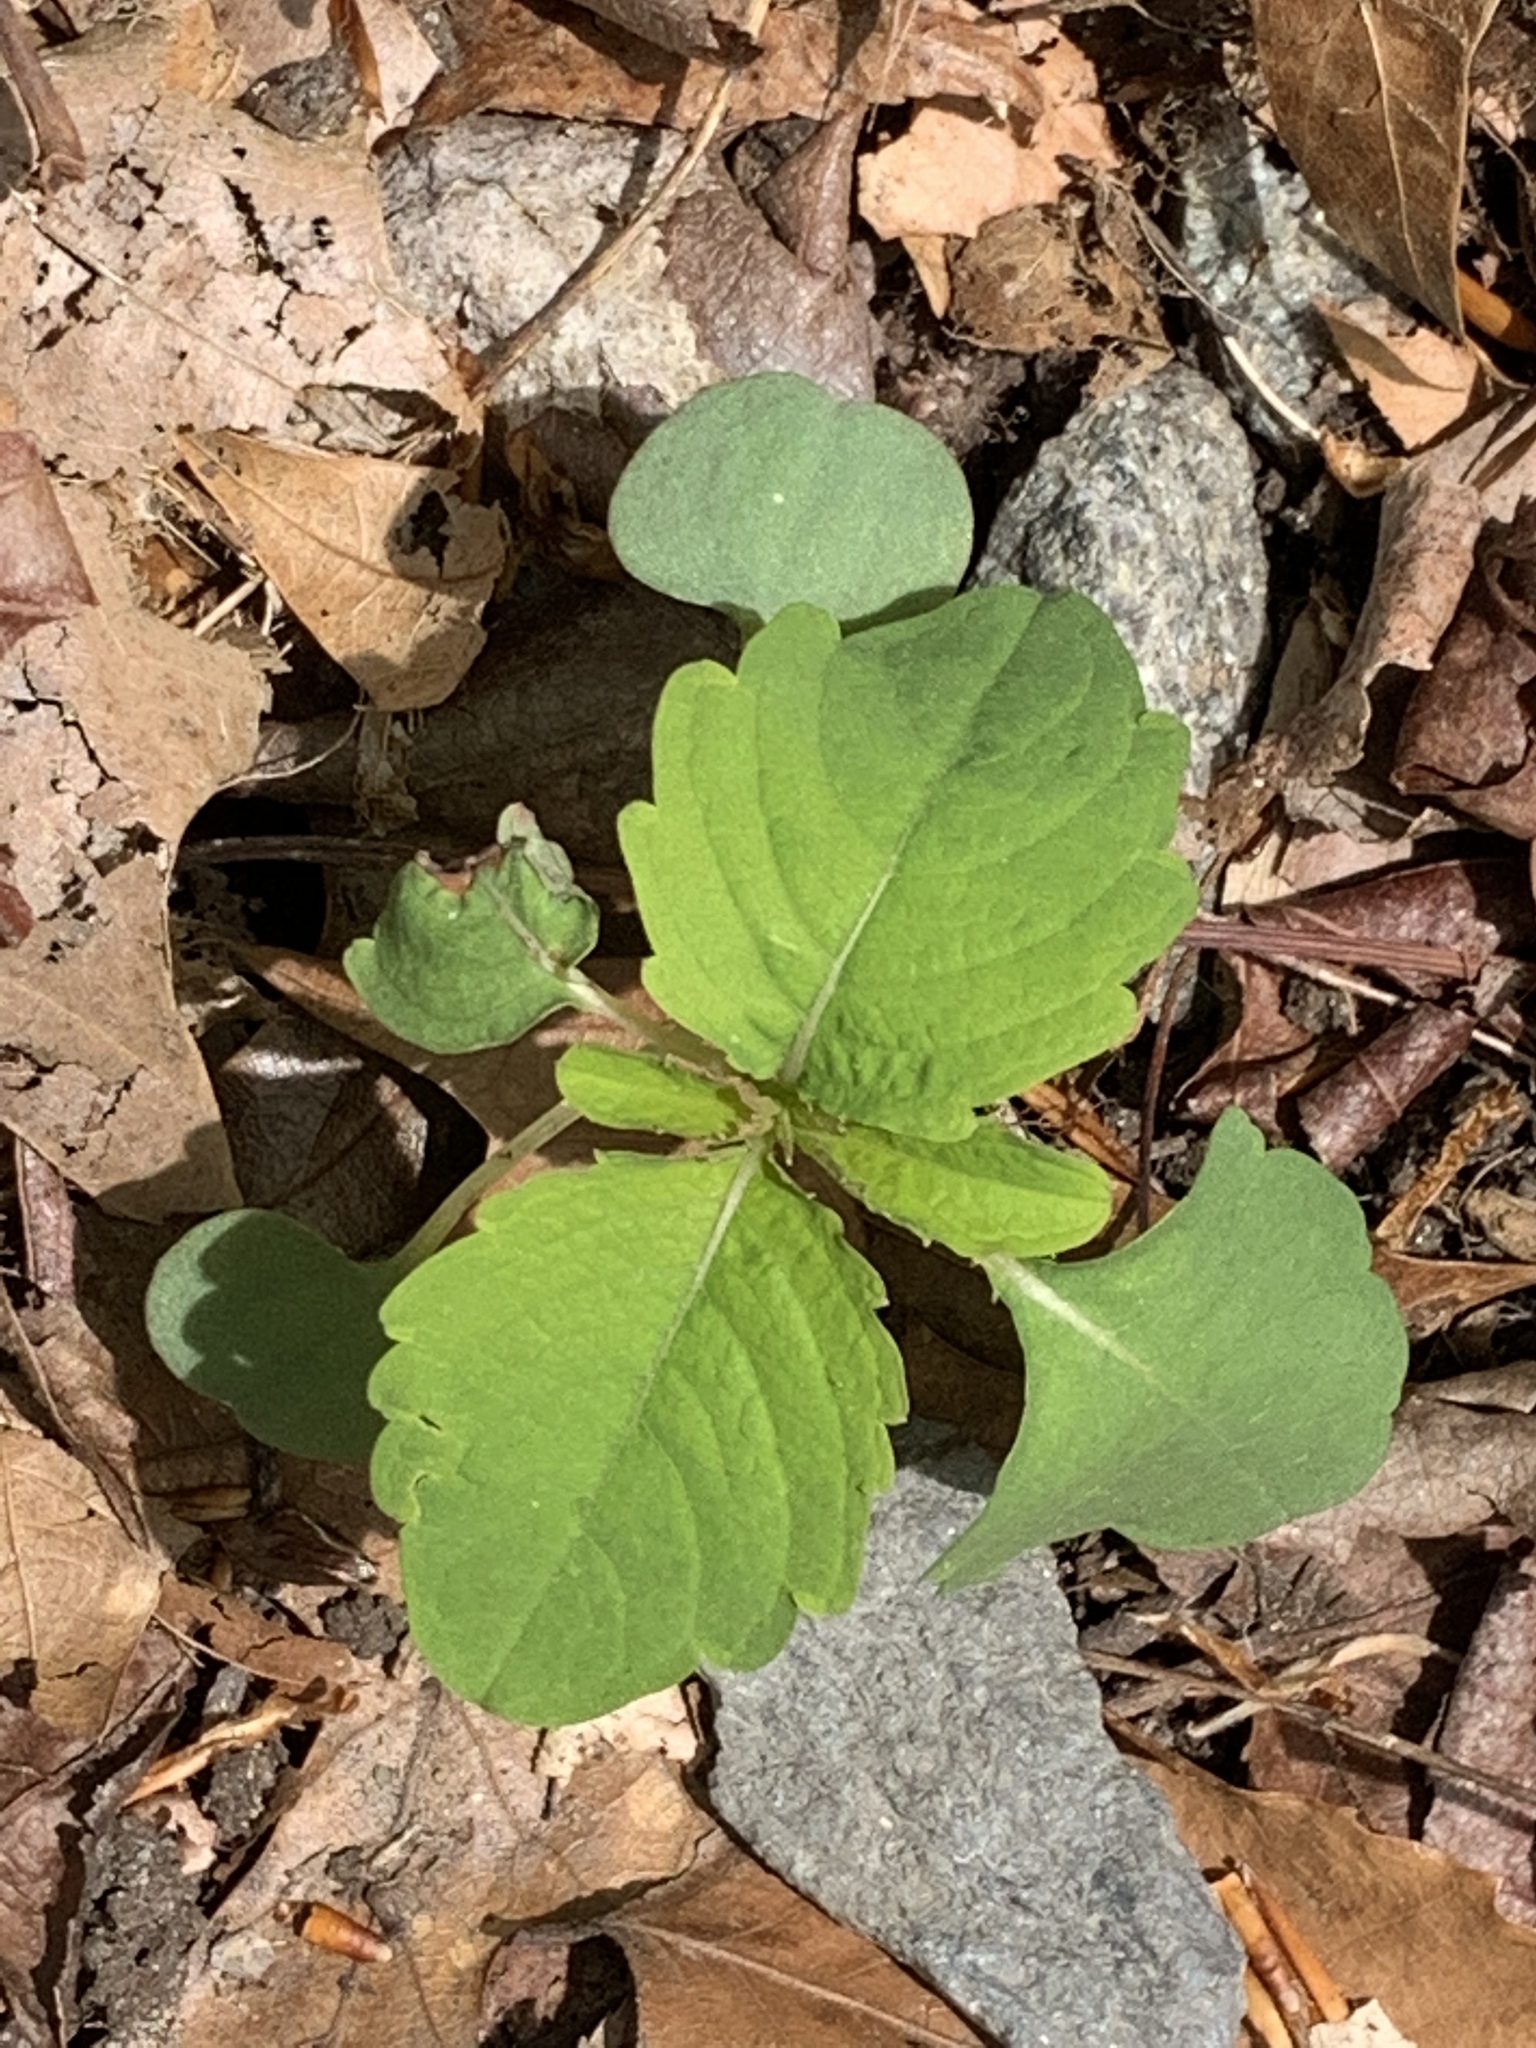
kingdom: Plantae
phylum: Tracheophyta
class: Magnoliopsida
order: Ericales
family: Balsaminaceae
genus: Impatiens
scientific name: Impatiens capensis
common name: Orange balsam
